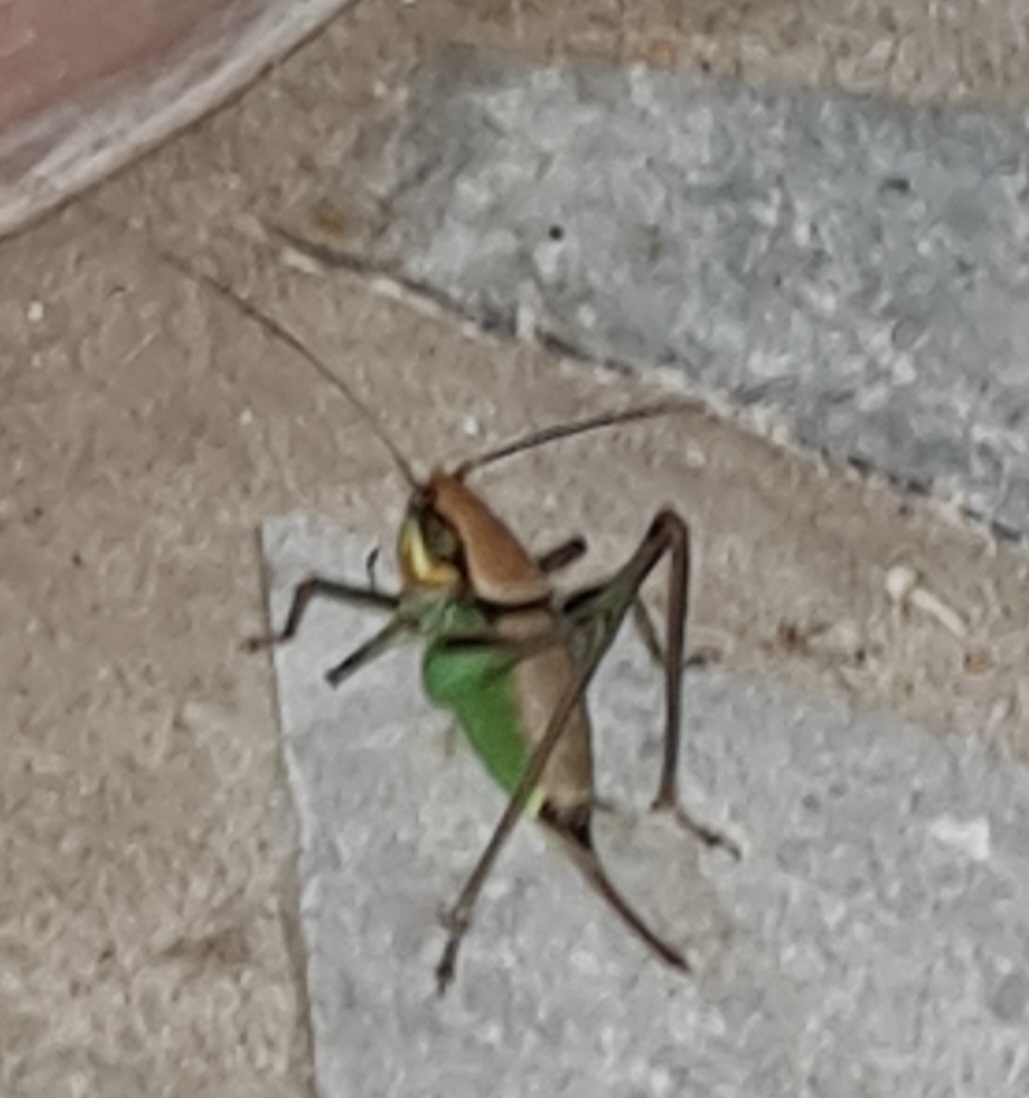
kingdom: Animalia
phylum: Arthropoda
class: Insecta
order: Orthoptera
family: Tettigoniidae
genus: Eupholidoptera
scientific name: Eupholidoptera schmidti
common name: Schmidt's marbled bush-cricket
